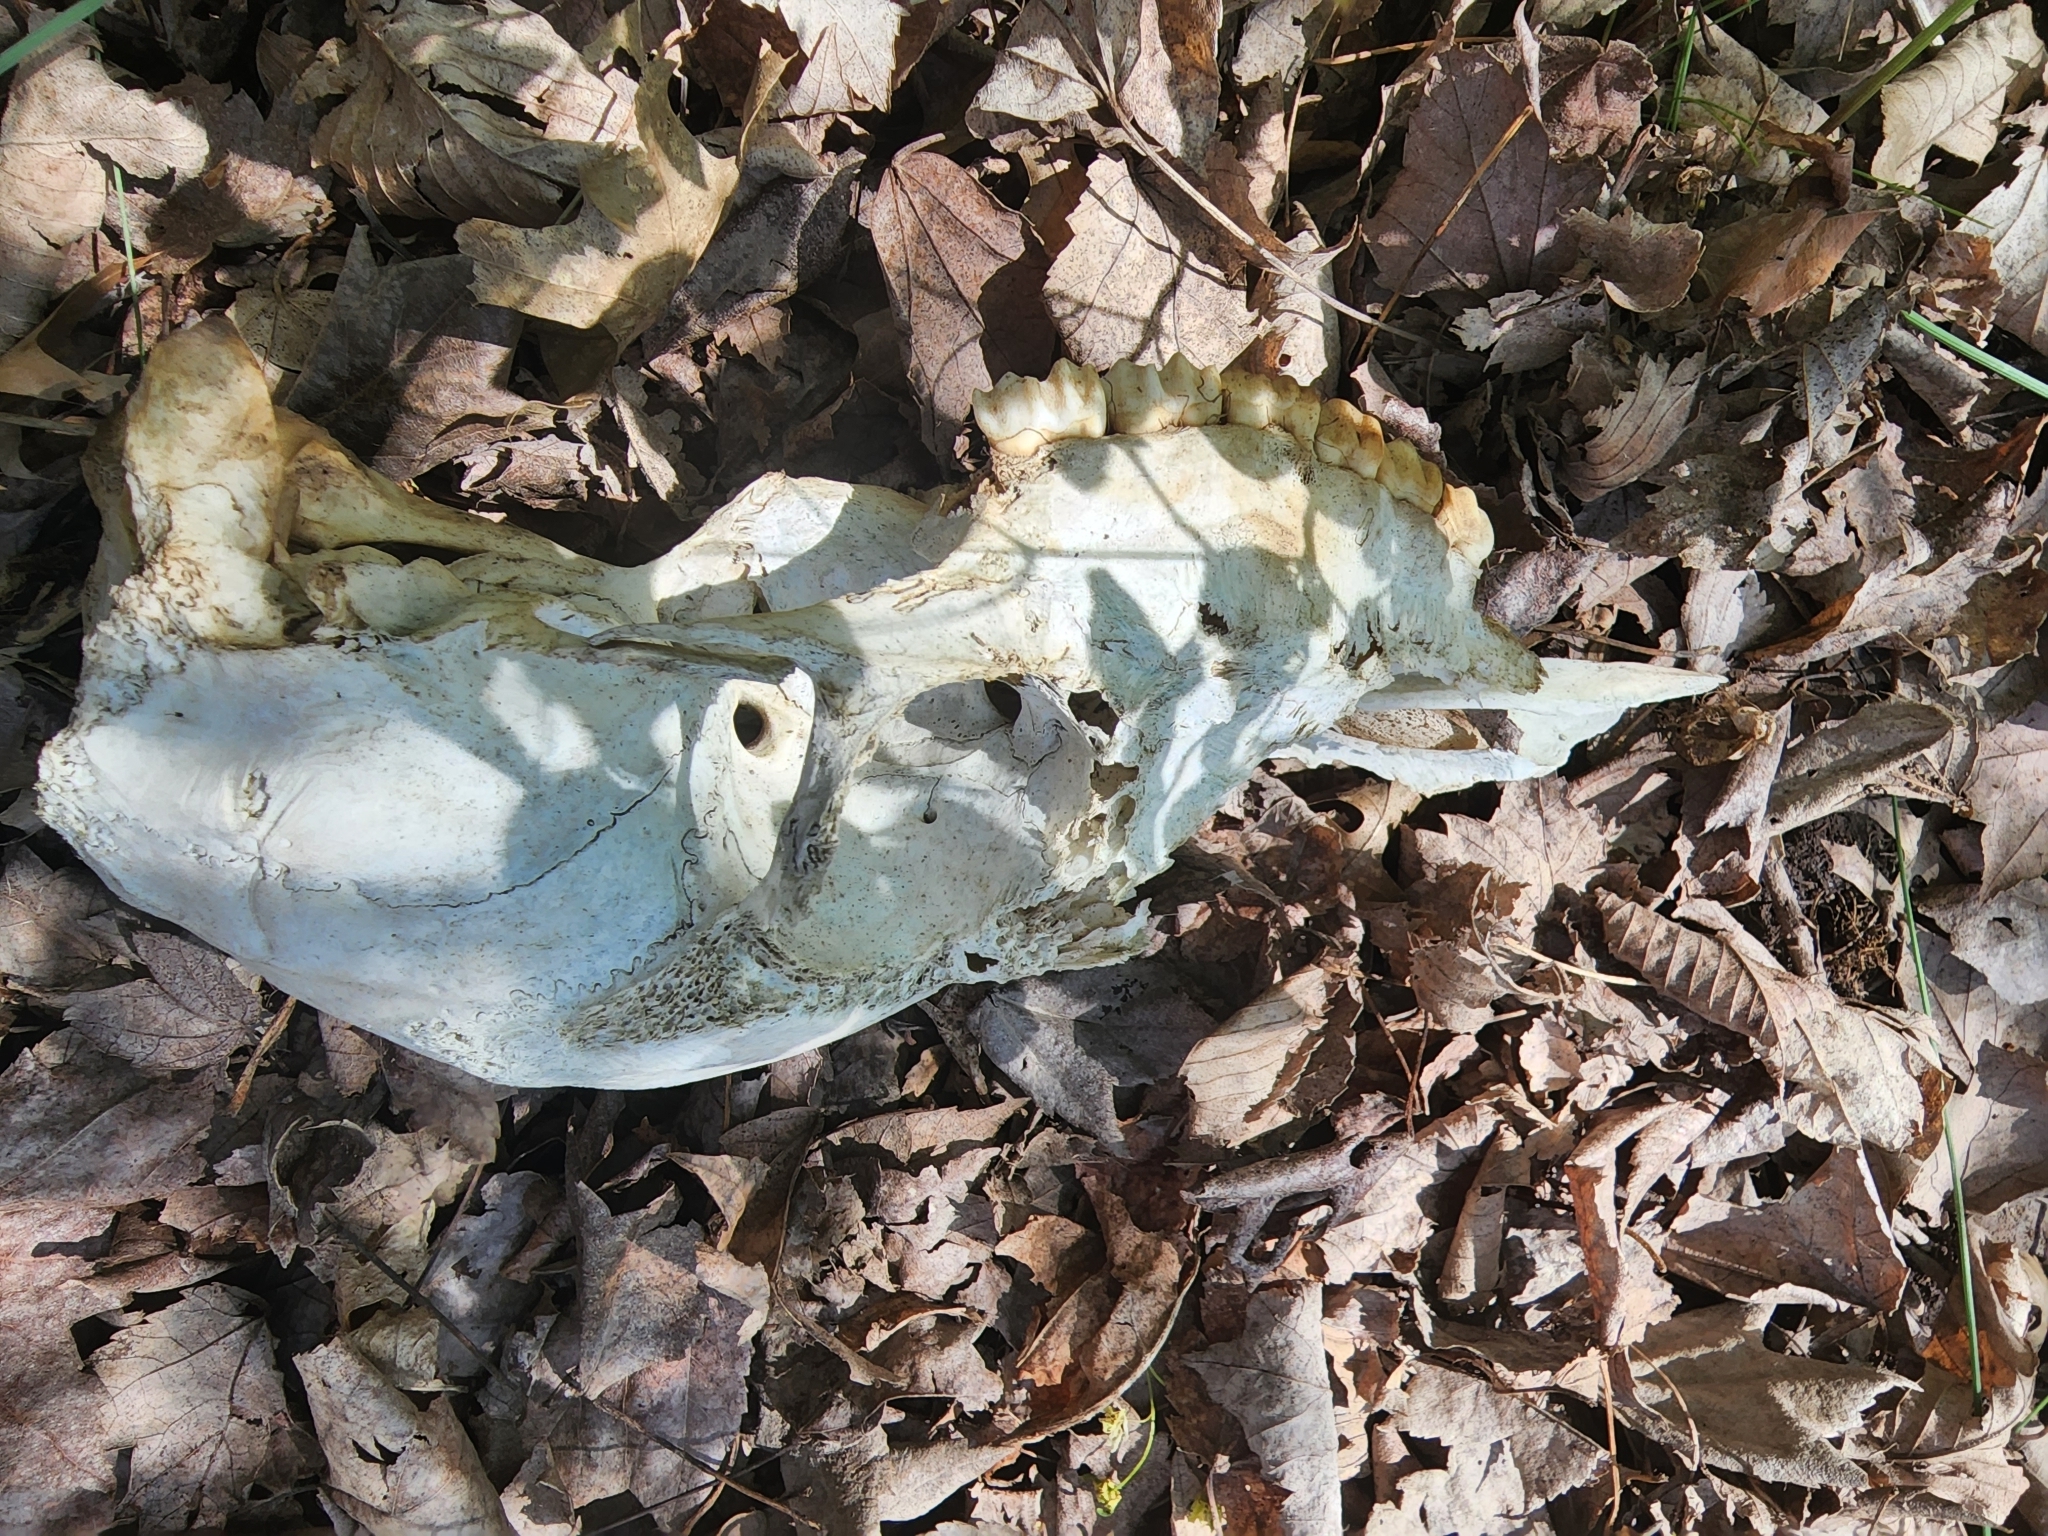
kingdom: Animalia
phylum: Chordata
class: Mammalia
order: Artiodactyla
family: Cervidae
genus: Odocoileus
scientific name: Odocoileus virginianus
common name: White-tailed deer
